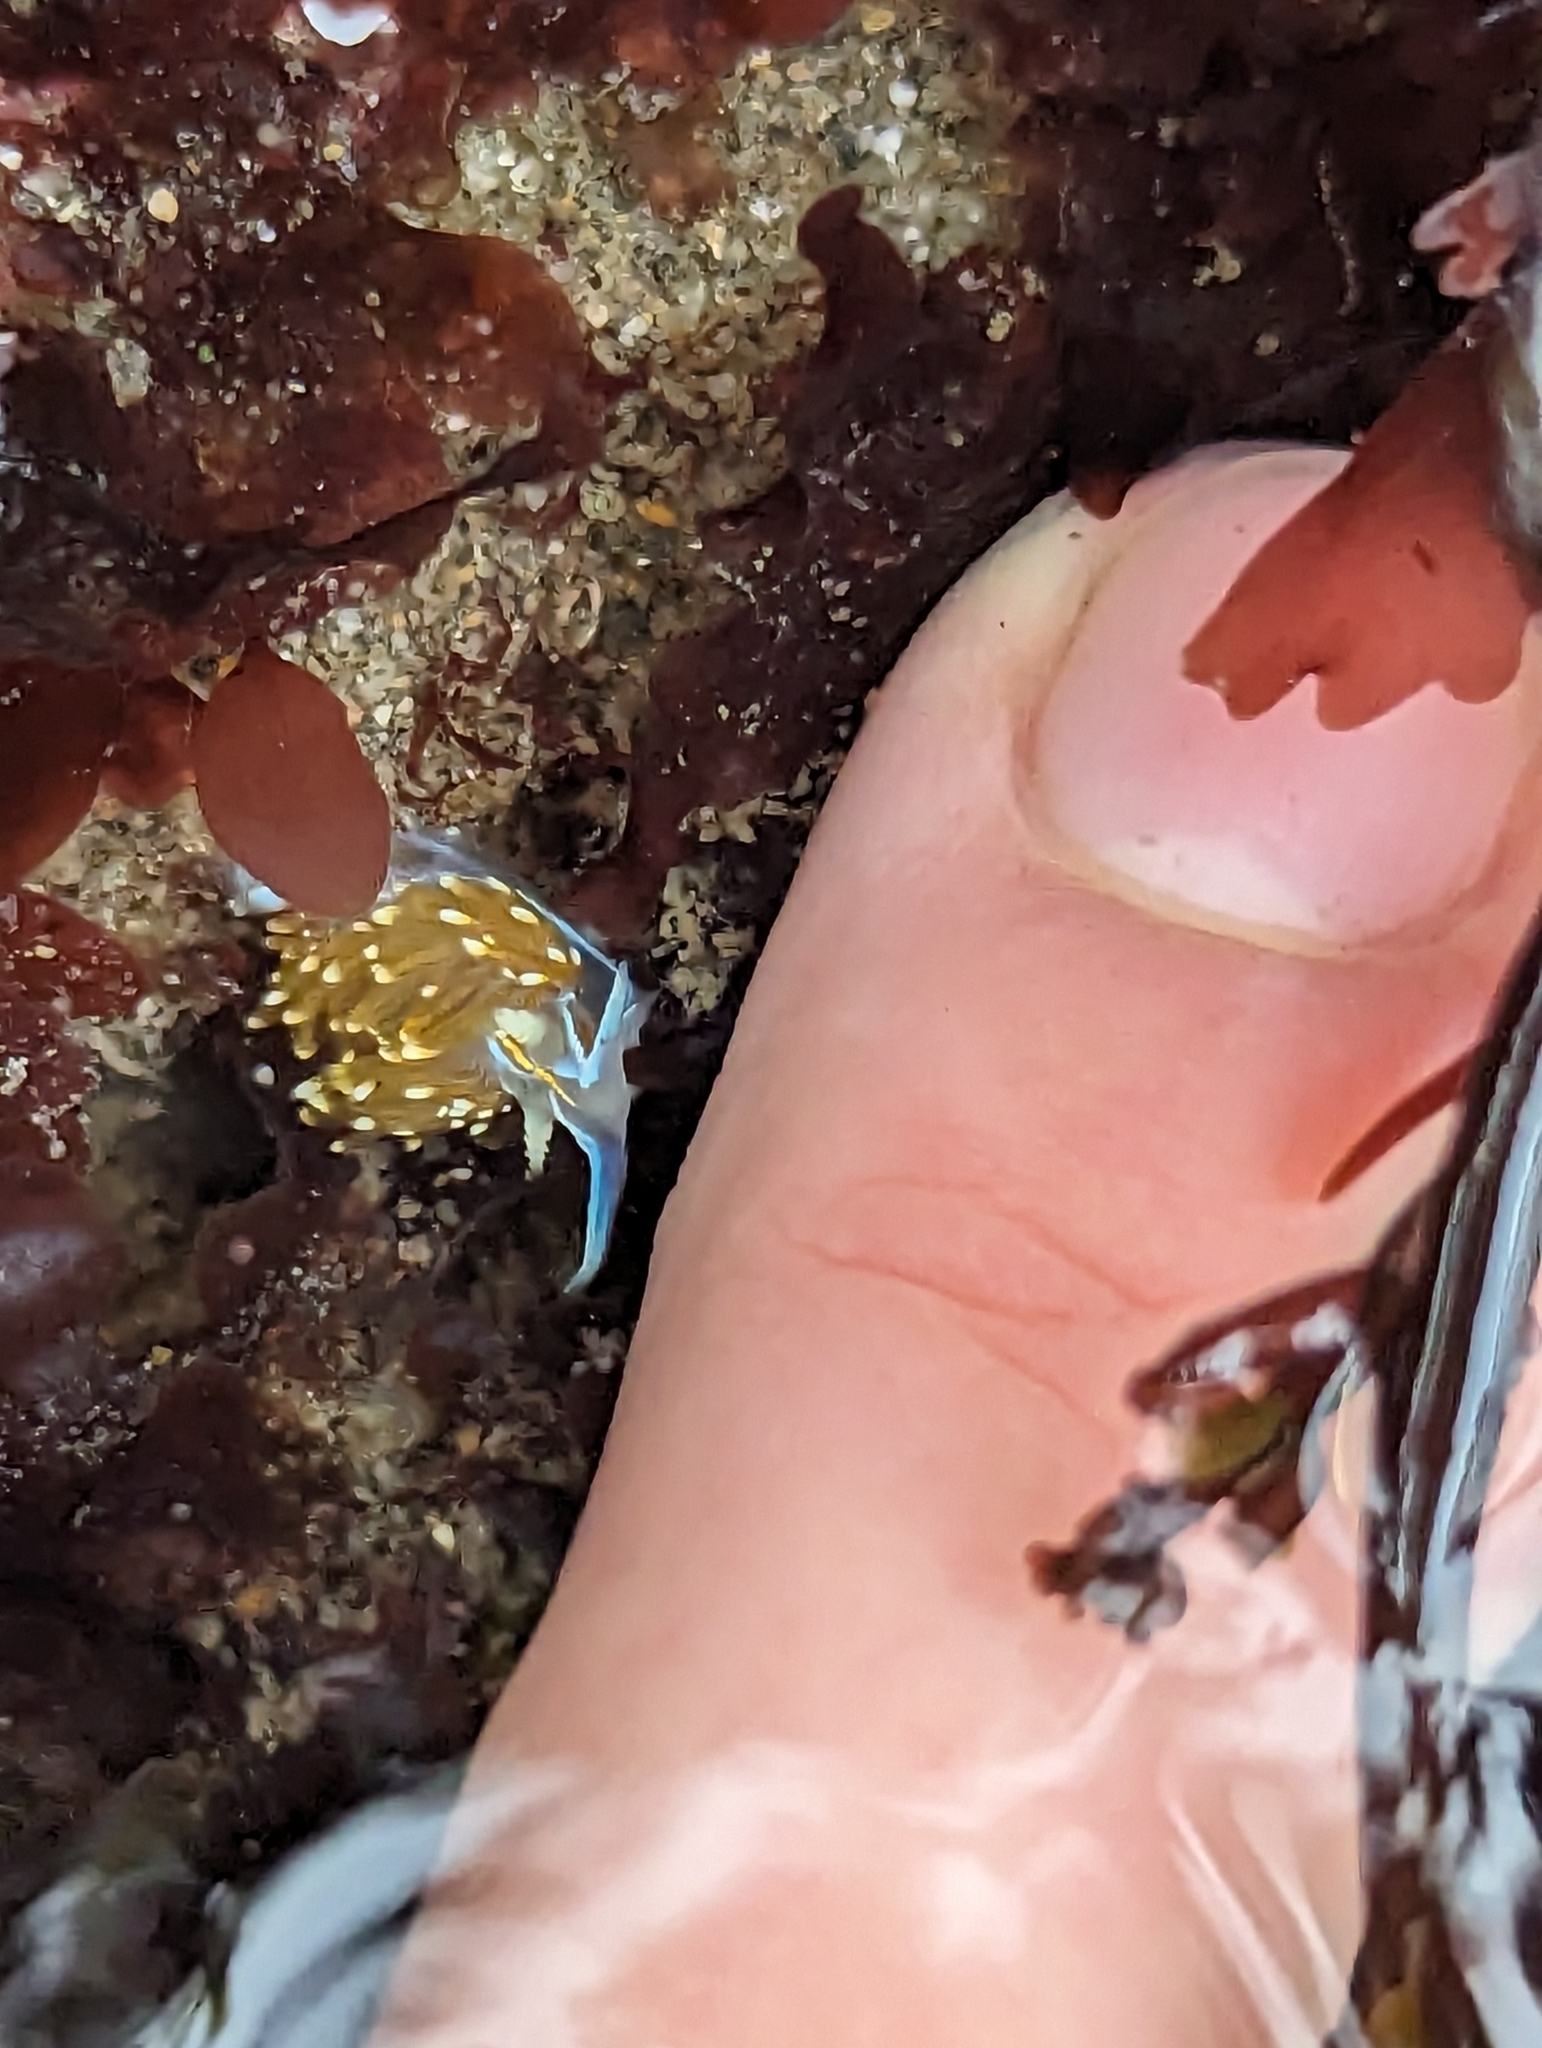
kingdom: Animalia
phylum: Mollusca
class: Gastropoda
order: Nudibranchia
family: Myrrhinidae
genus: Hermissenda
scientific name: Hermissenda opalescens
